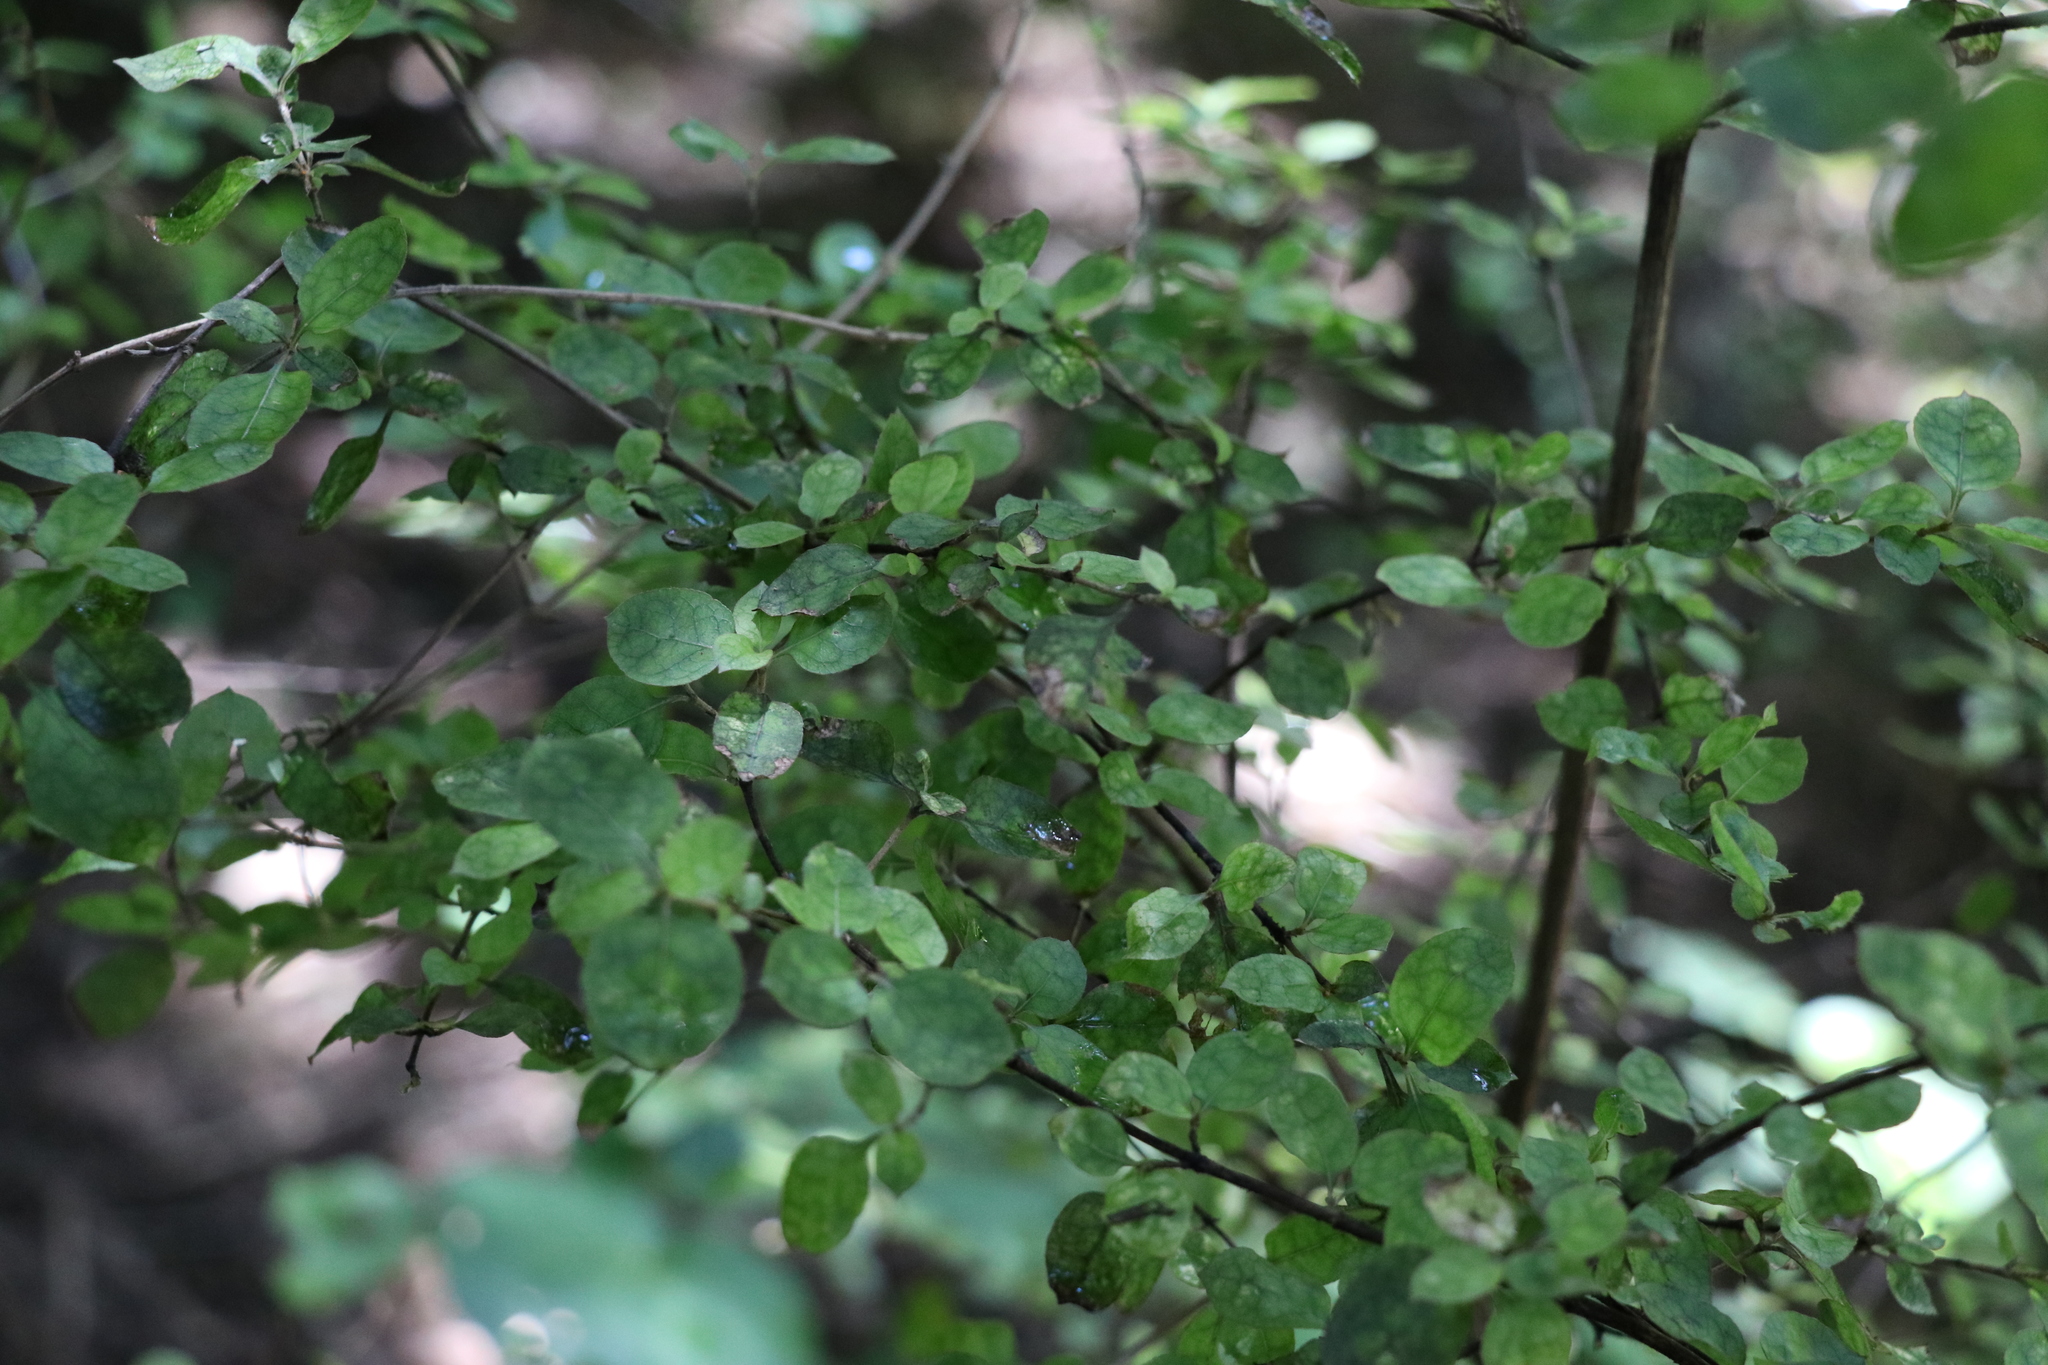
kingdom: Plantae
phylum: Tracheophyta
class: Magnoliopsida
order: Gentianales
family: Rubiaceae
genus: Coprosma
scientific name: Coprosma rhamnoides
